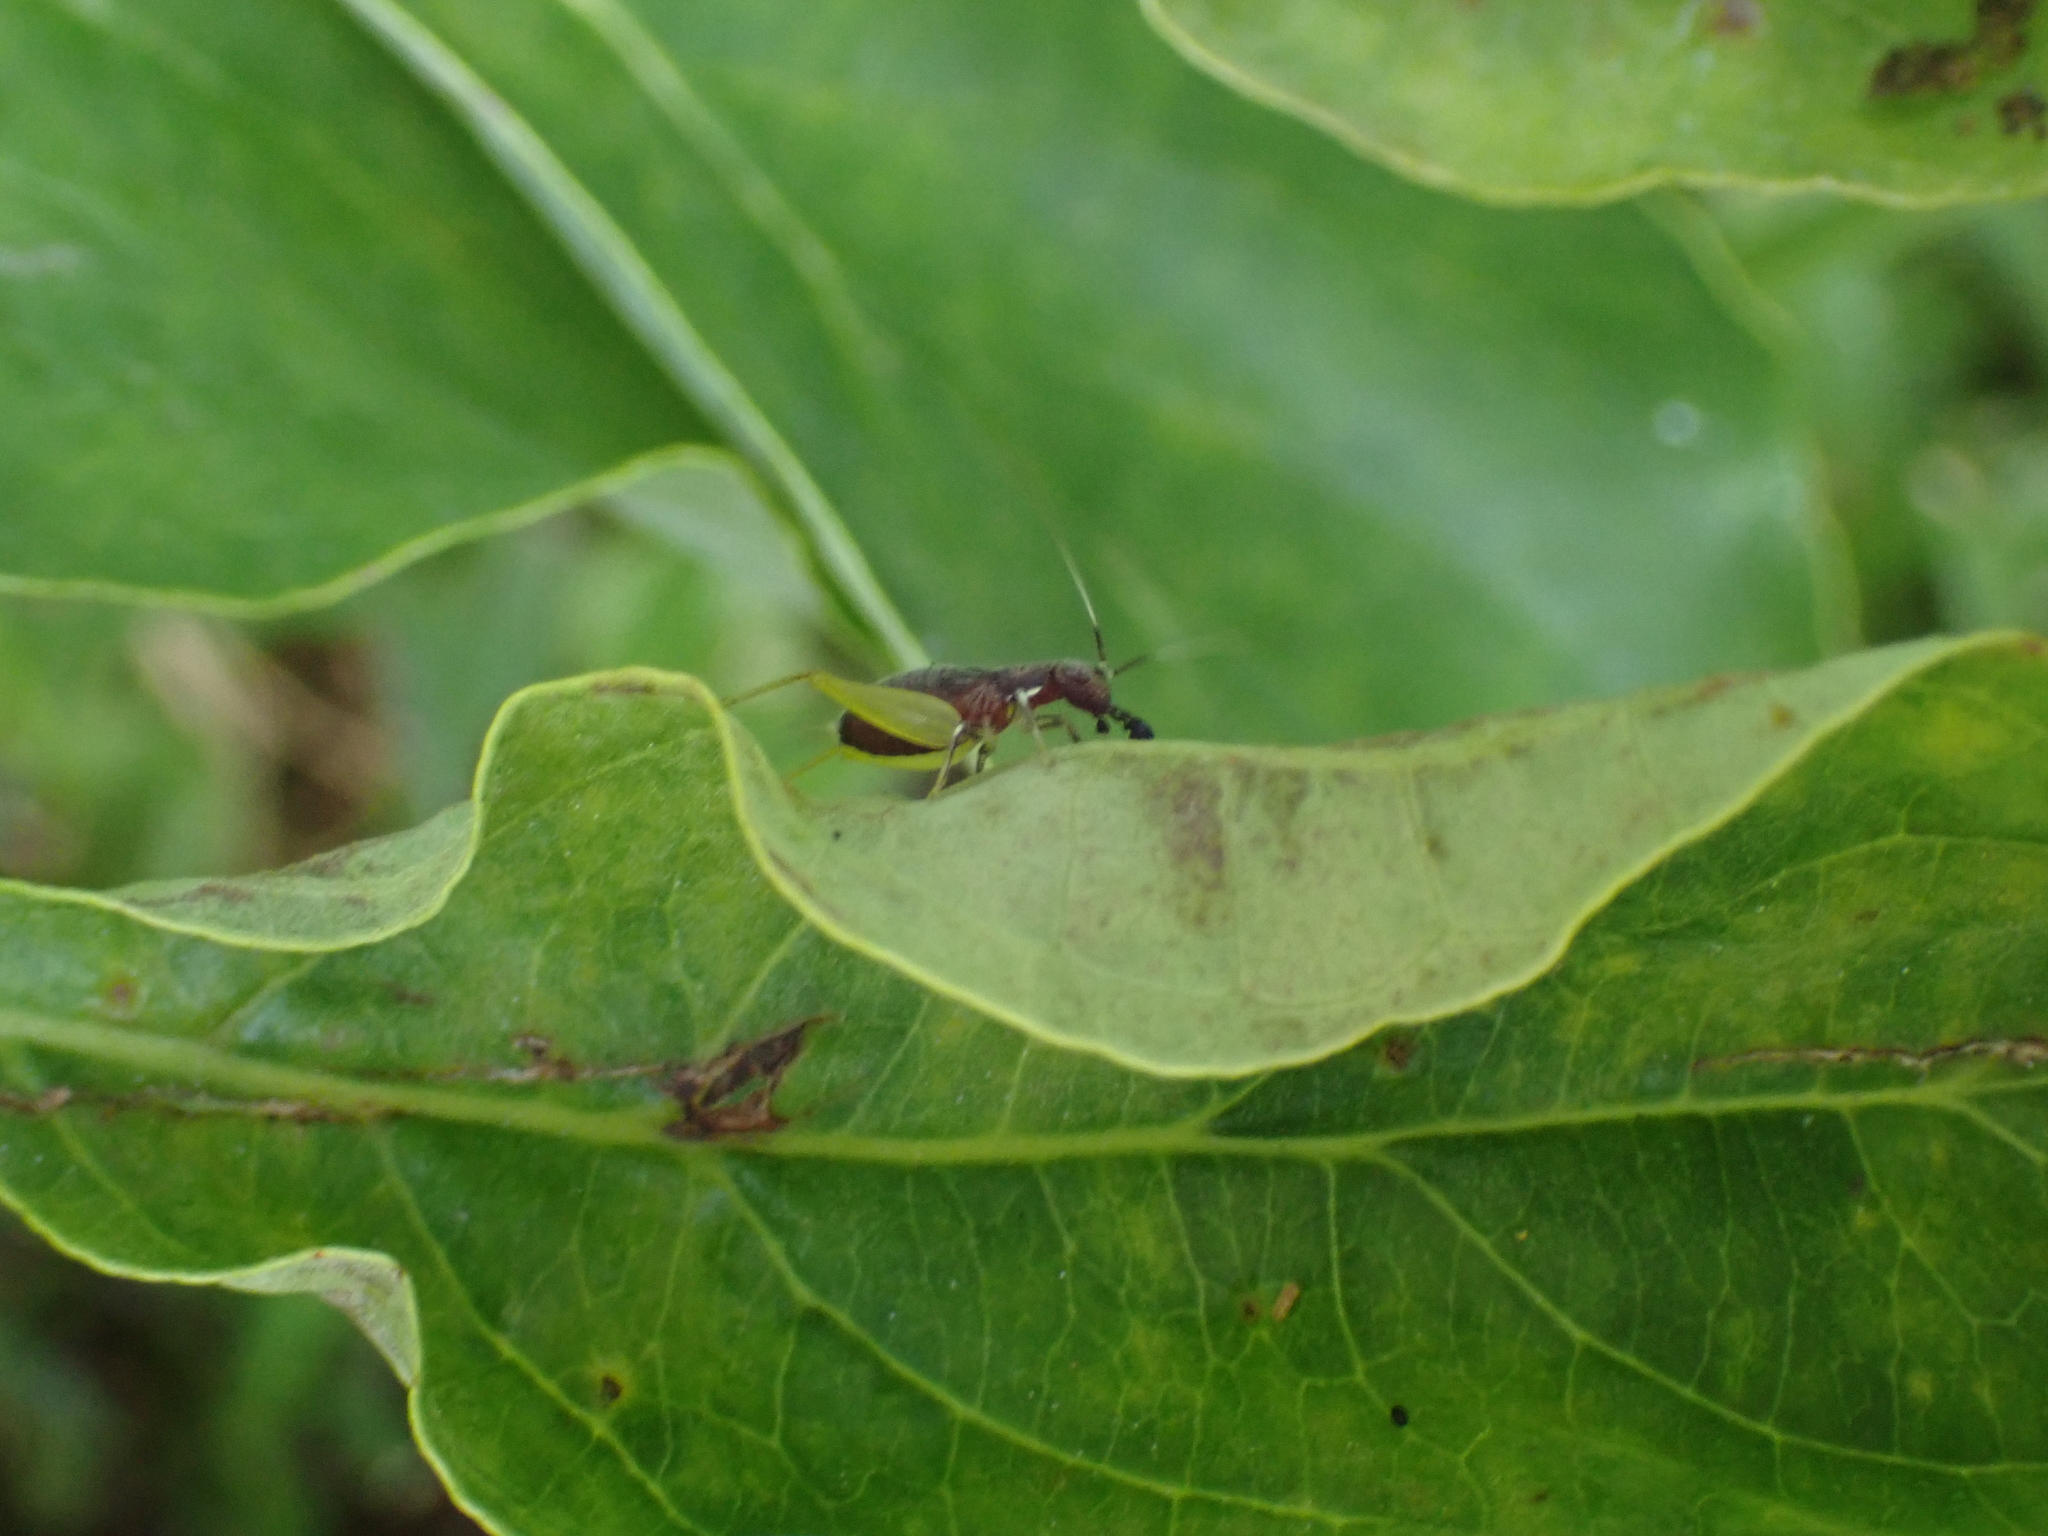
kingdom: Animalia
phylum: Arthropoda
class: Insecta
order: Orthoptera
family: Trigonidiidae
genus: Phyllopalpus
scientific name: Phyllopalpus pulchellus
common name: Handsome trig
